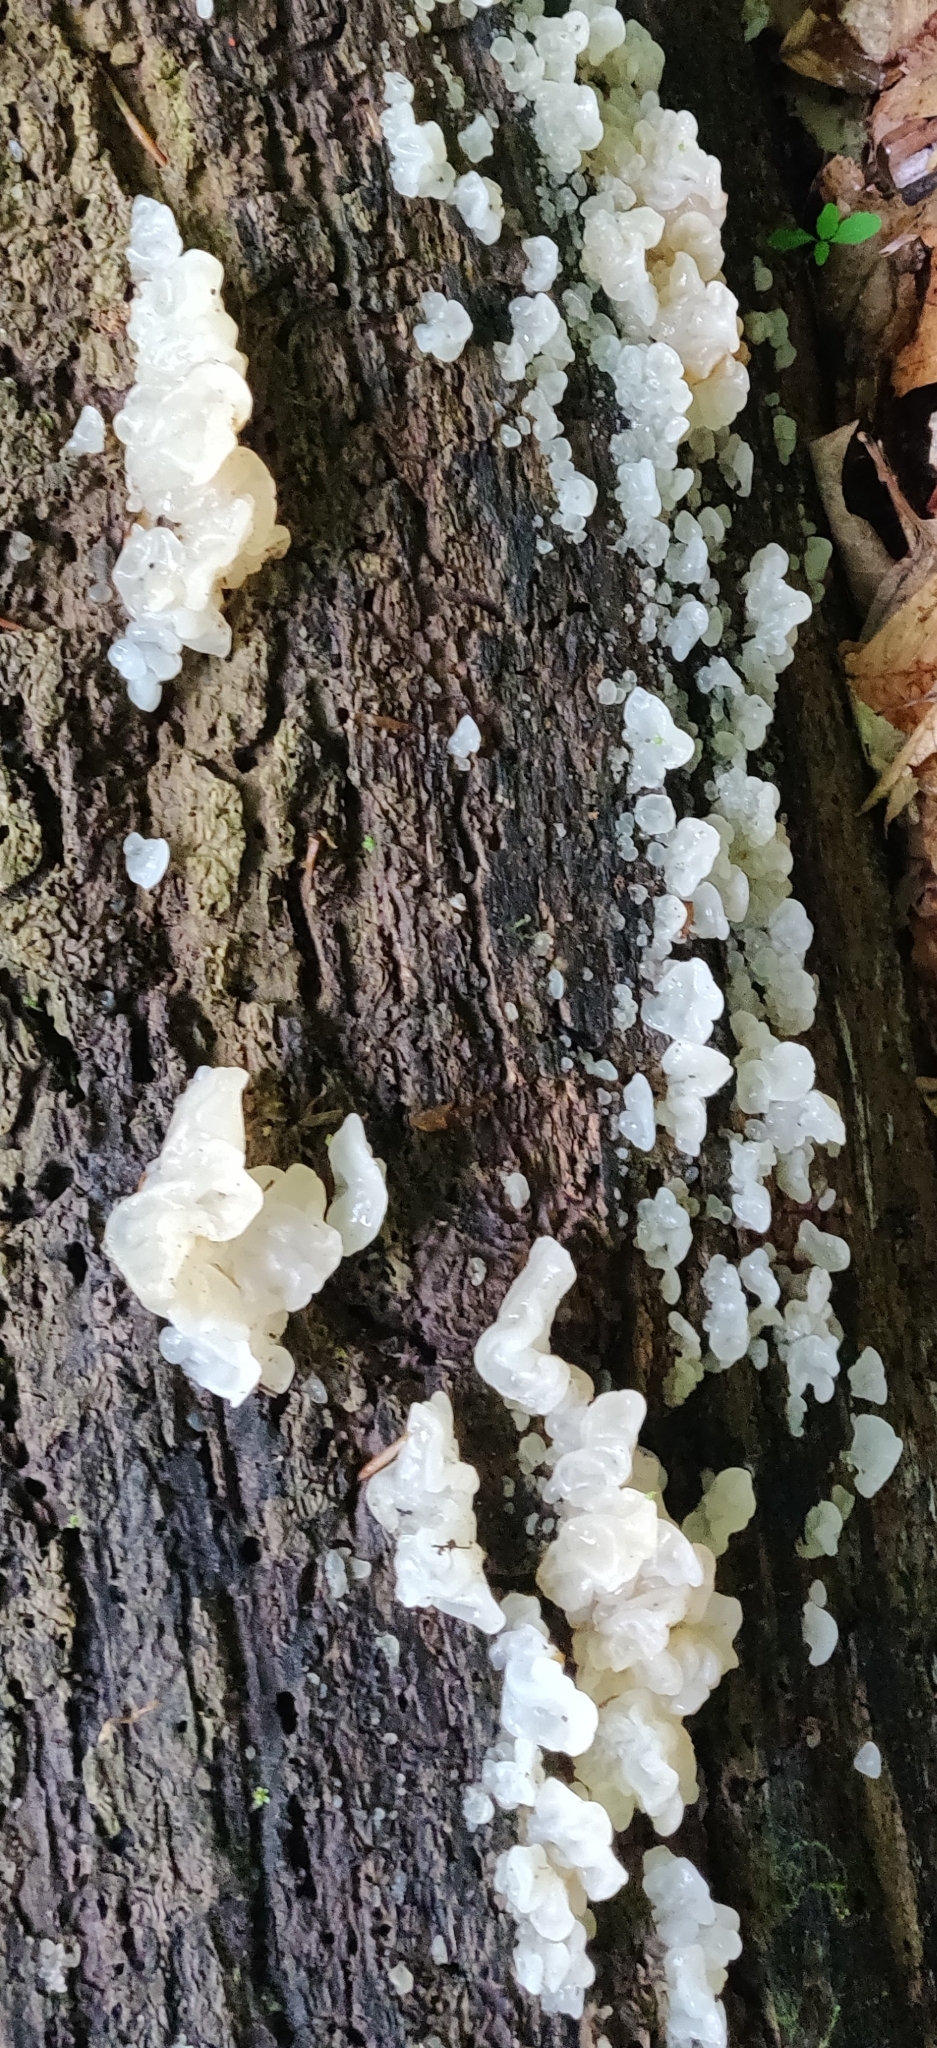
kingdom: Fungi
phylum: Basidiomycota
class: Agaricomycetes
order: Auriculariales
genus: Ductifera
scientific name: Ductifera pululahuana
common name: White jelly fungus
